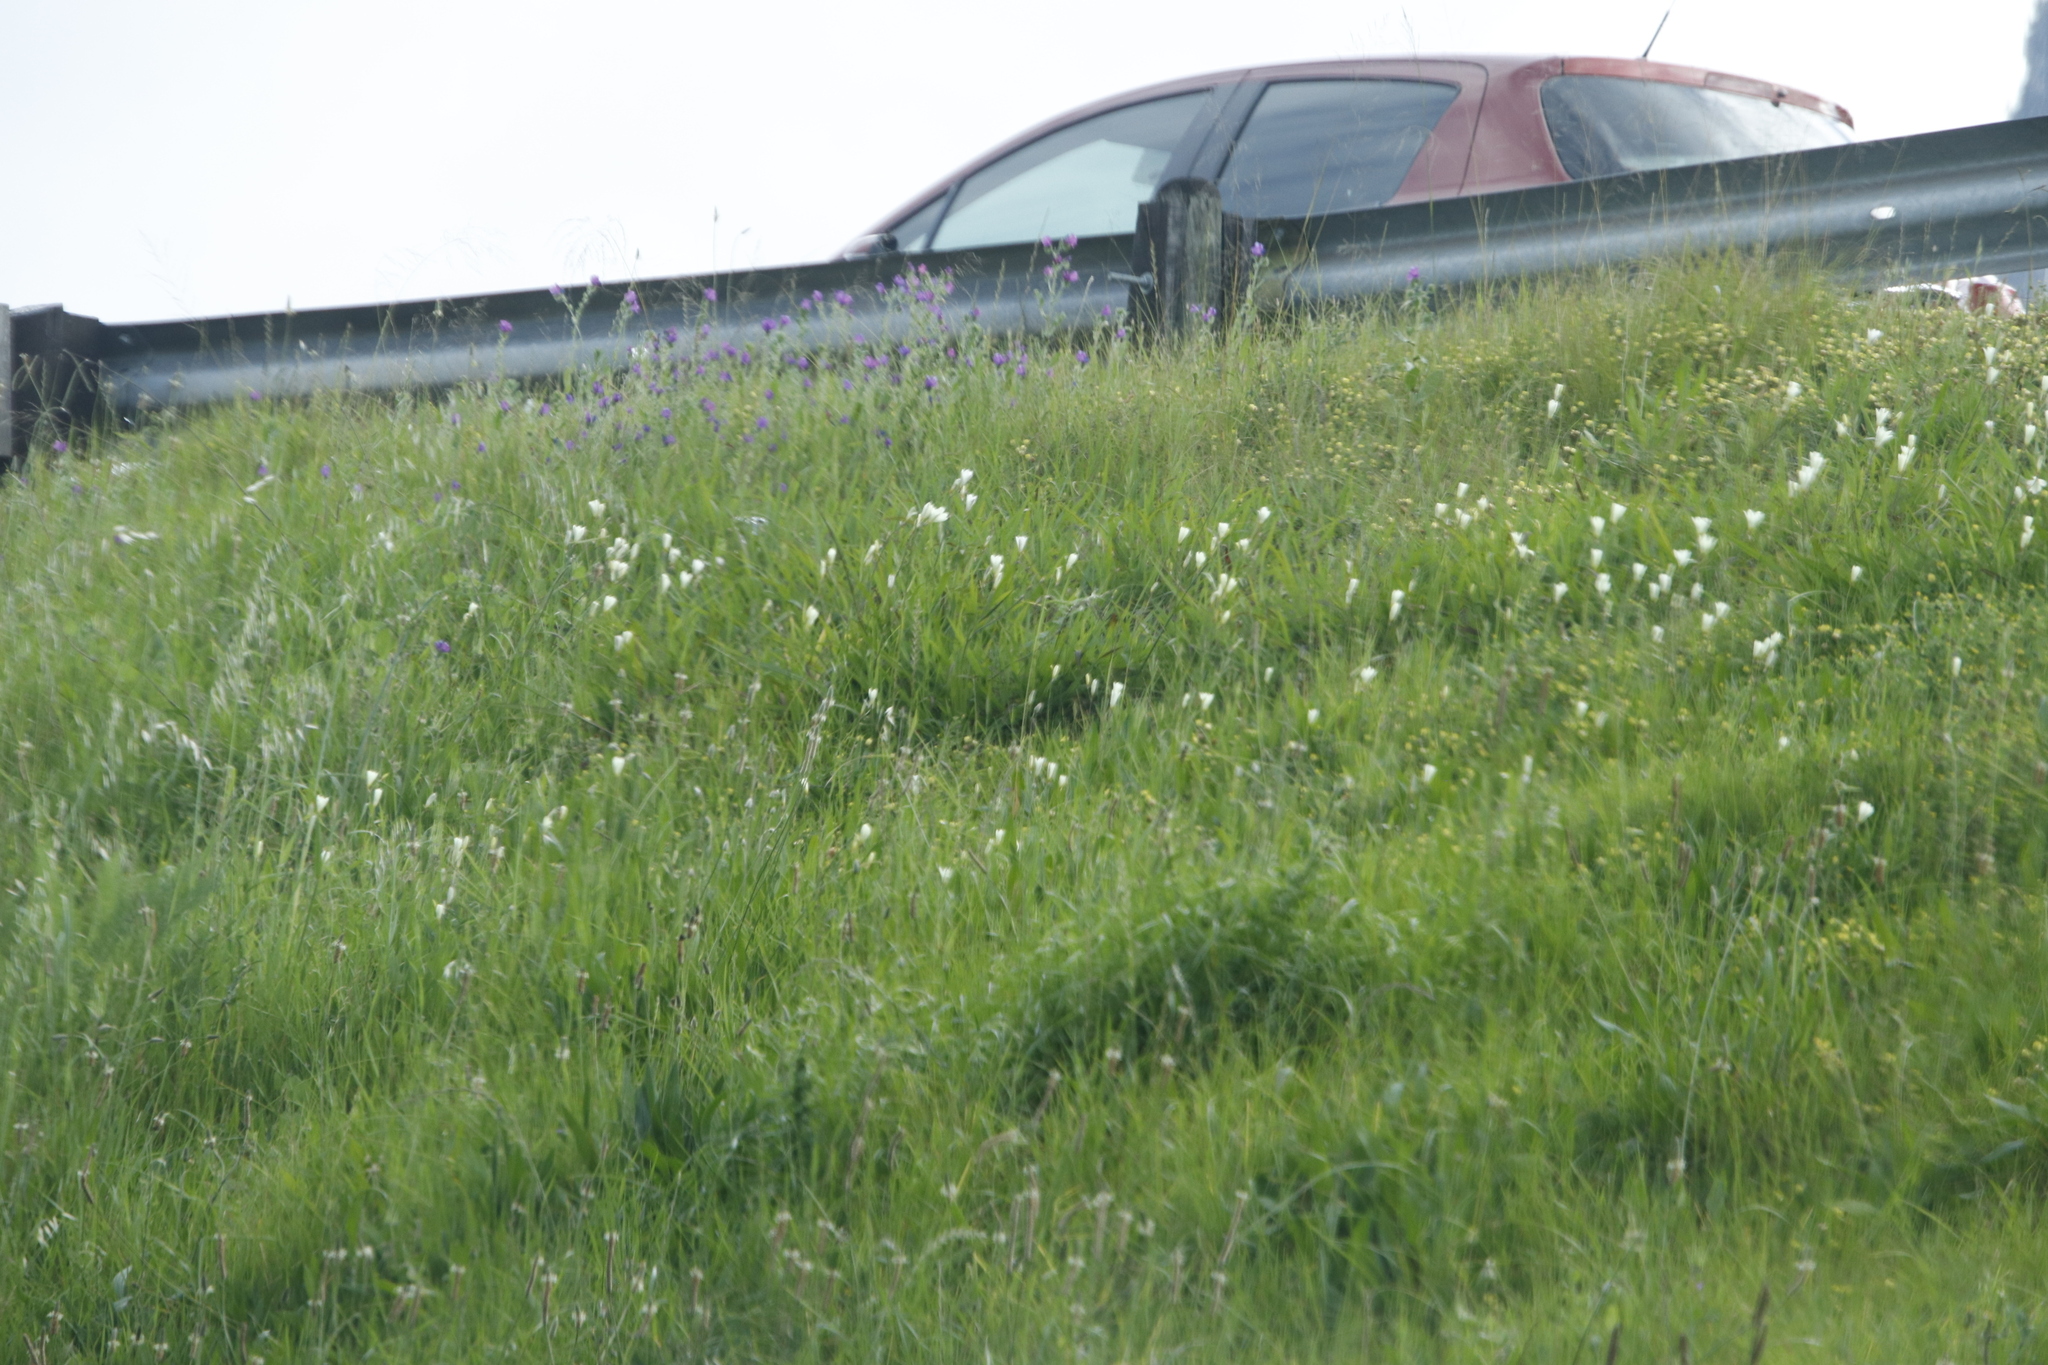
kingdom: Plantae
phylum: Tracheophyta
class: Liliopsida
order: Asparagales
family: Iridaceae
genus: Sparaxis
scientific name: Sparaxis bulbifera
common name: Harlequin-flower
